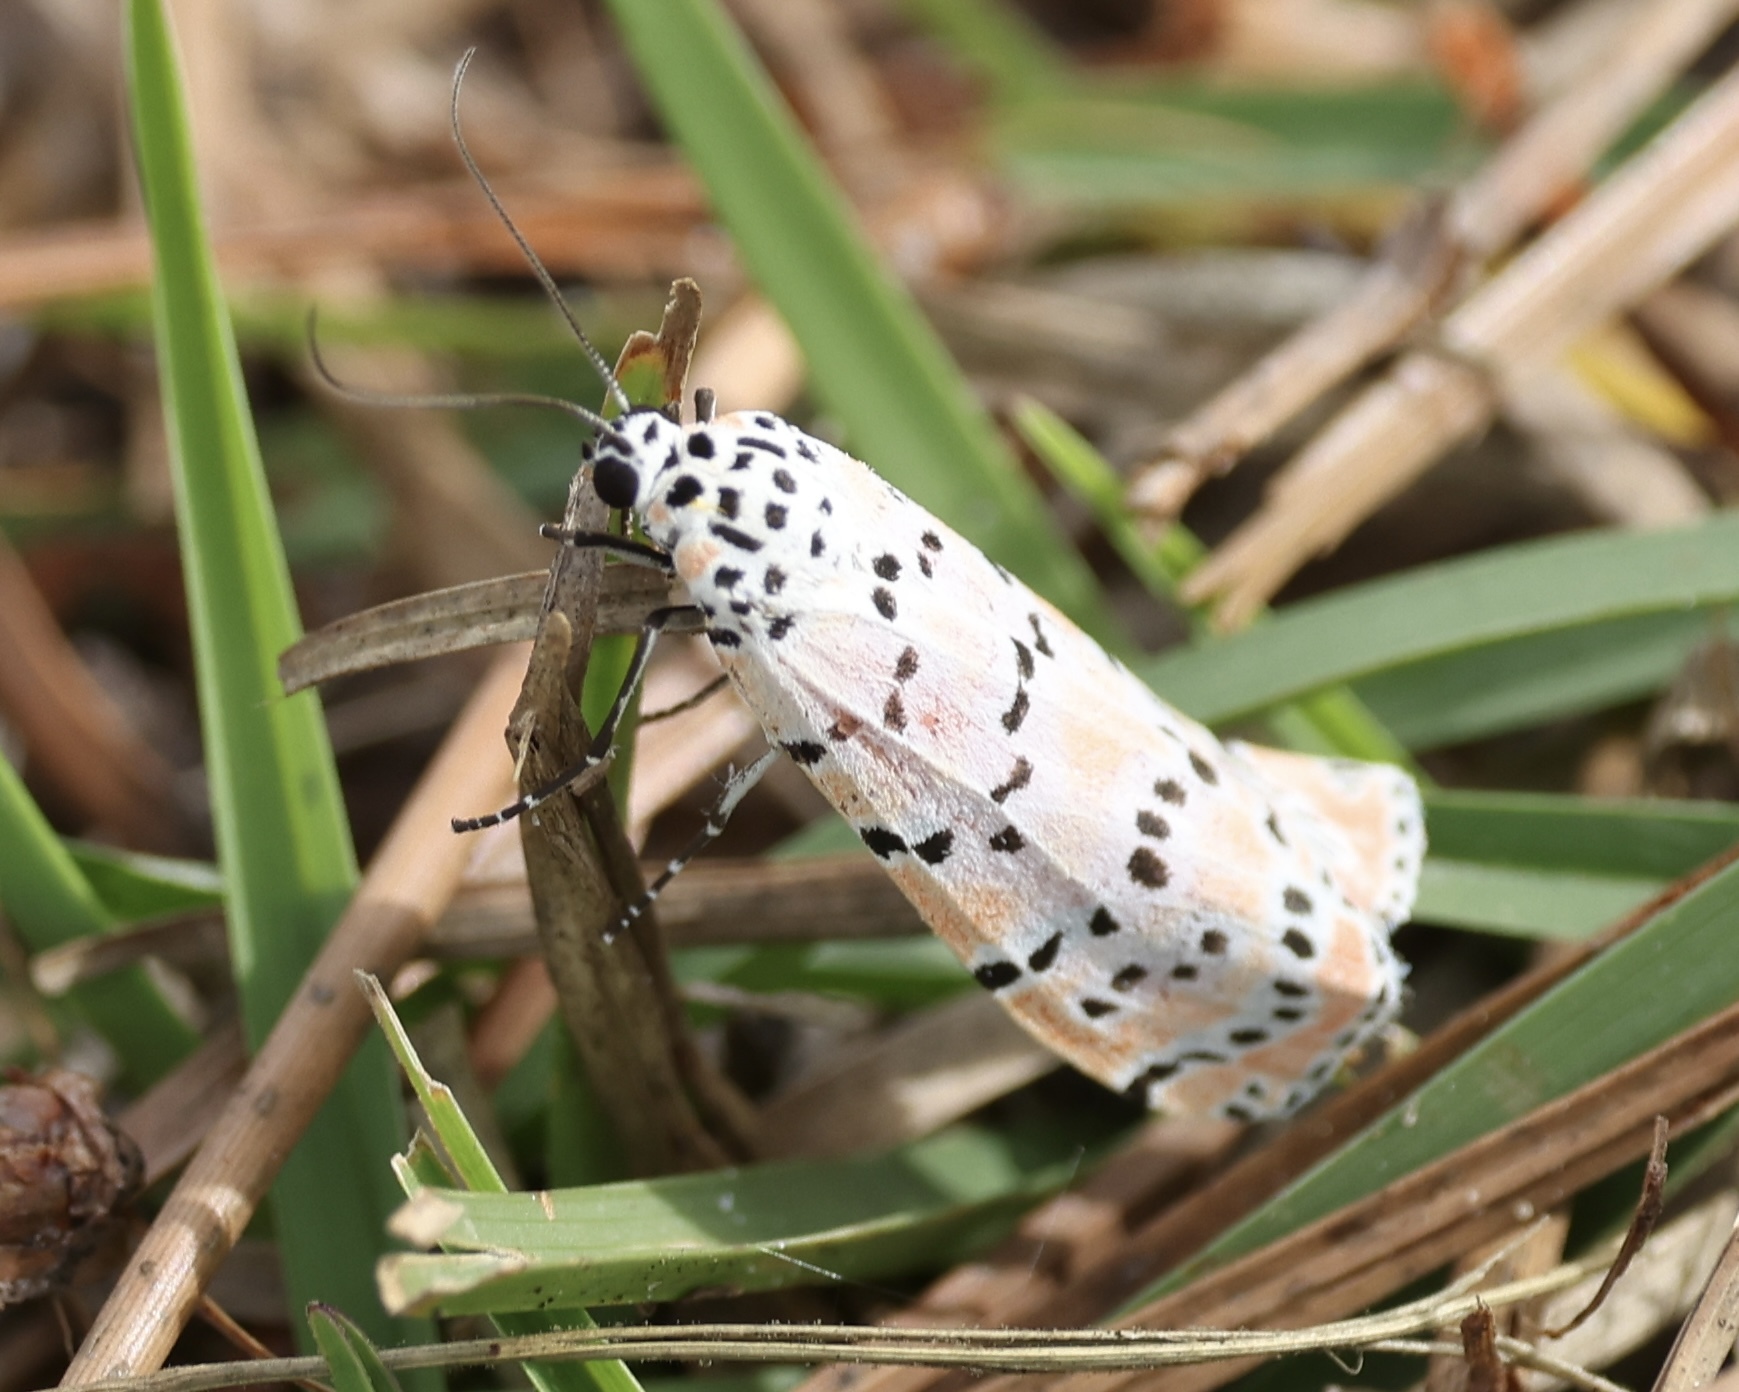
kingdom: Animalia
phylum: Arthropoda
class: Insecta
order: Lepidoptera
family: Erebidae
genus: Utetheisa
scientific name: Utetheisa ornatrix
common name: Beautiful utetheisa
